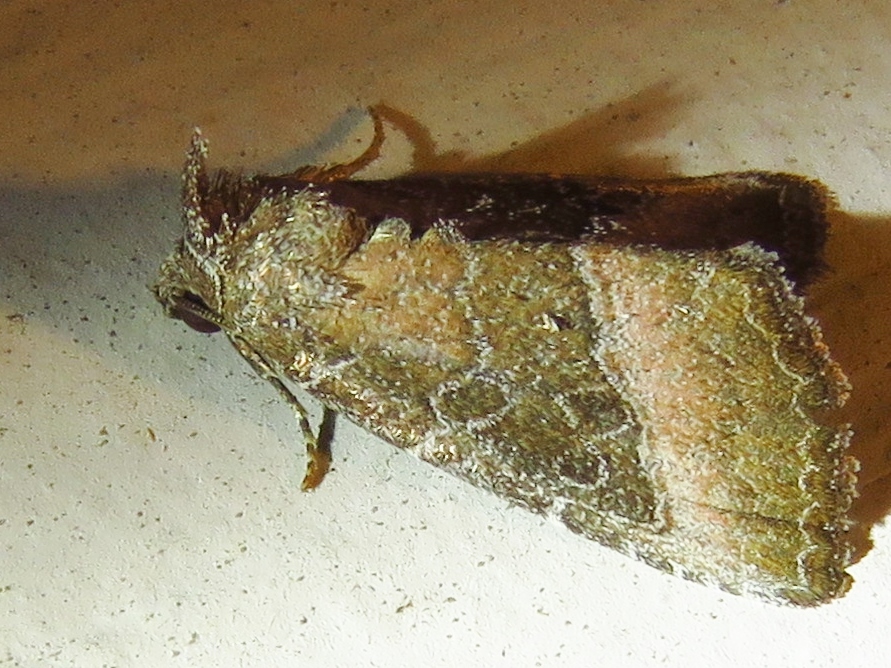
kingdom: Animalia
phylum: Arthropoda
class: Insecta
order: Lepidoptera
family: Noctuidae
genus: Ogdoconta
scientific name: Ogdoconta cinereola
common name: Common pinkband
